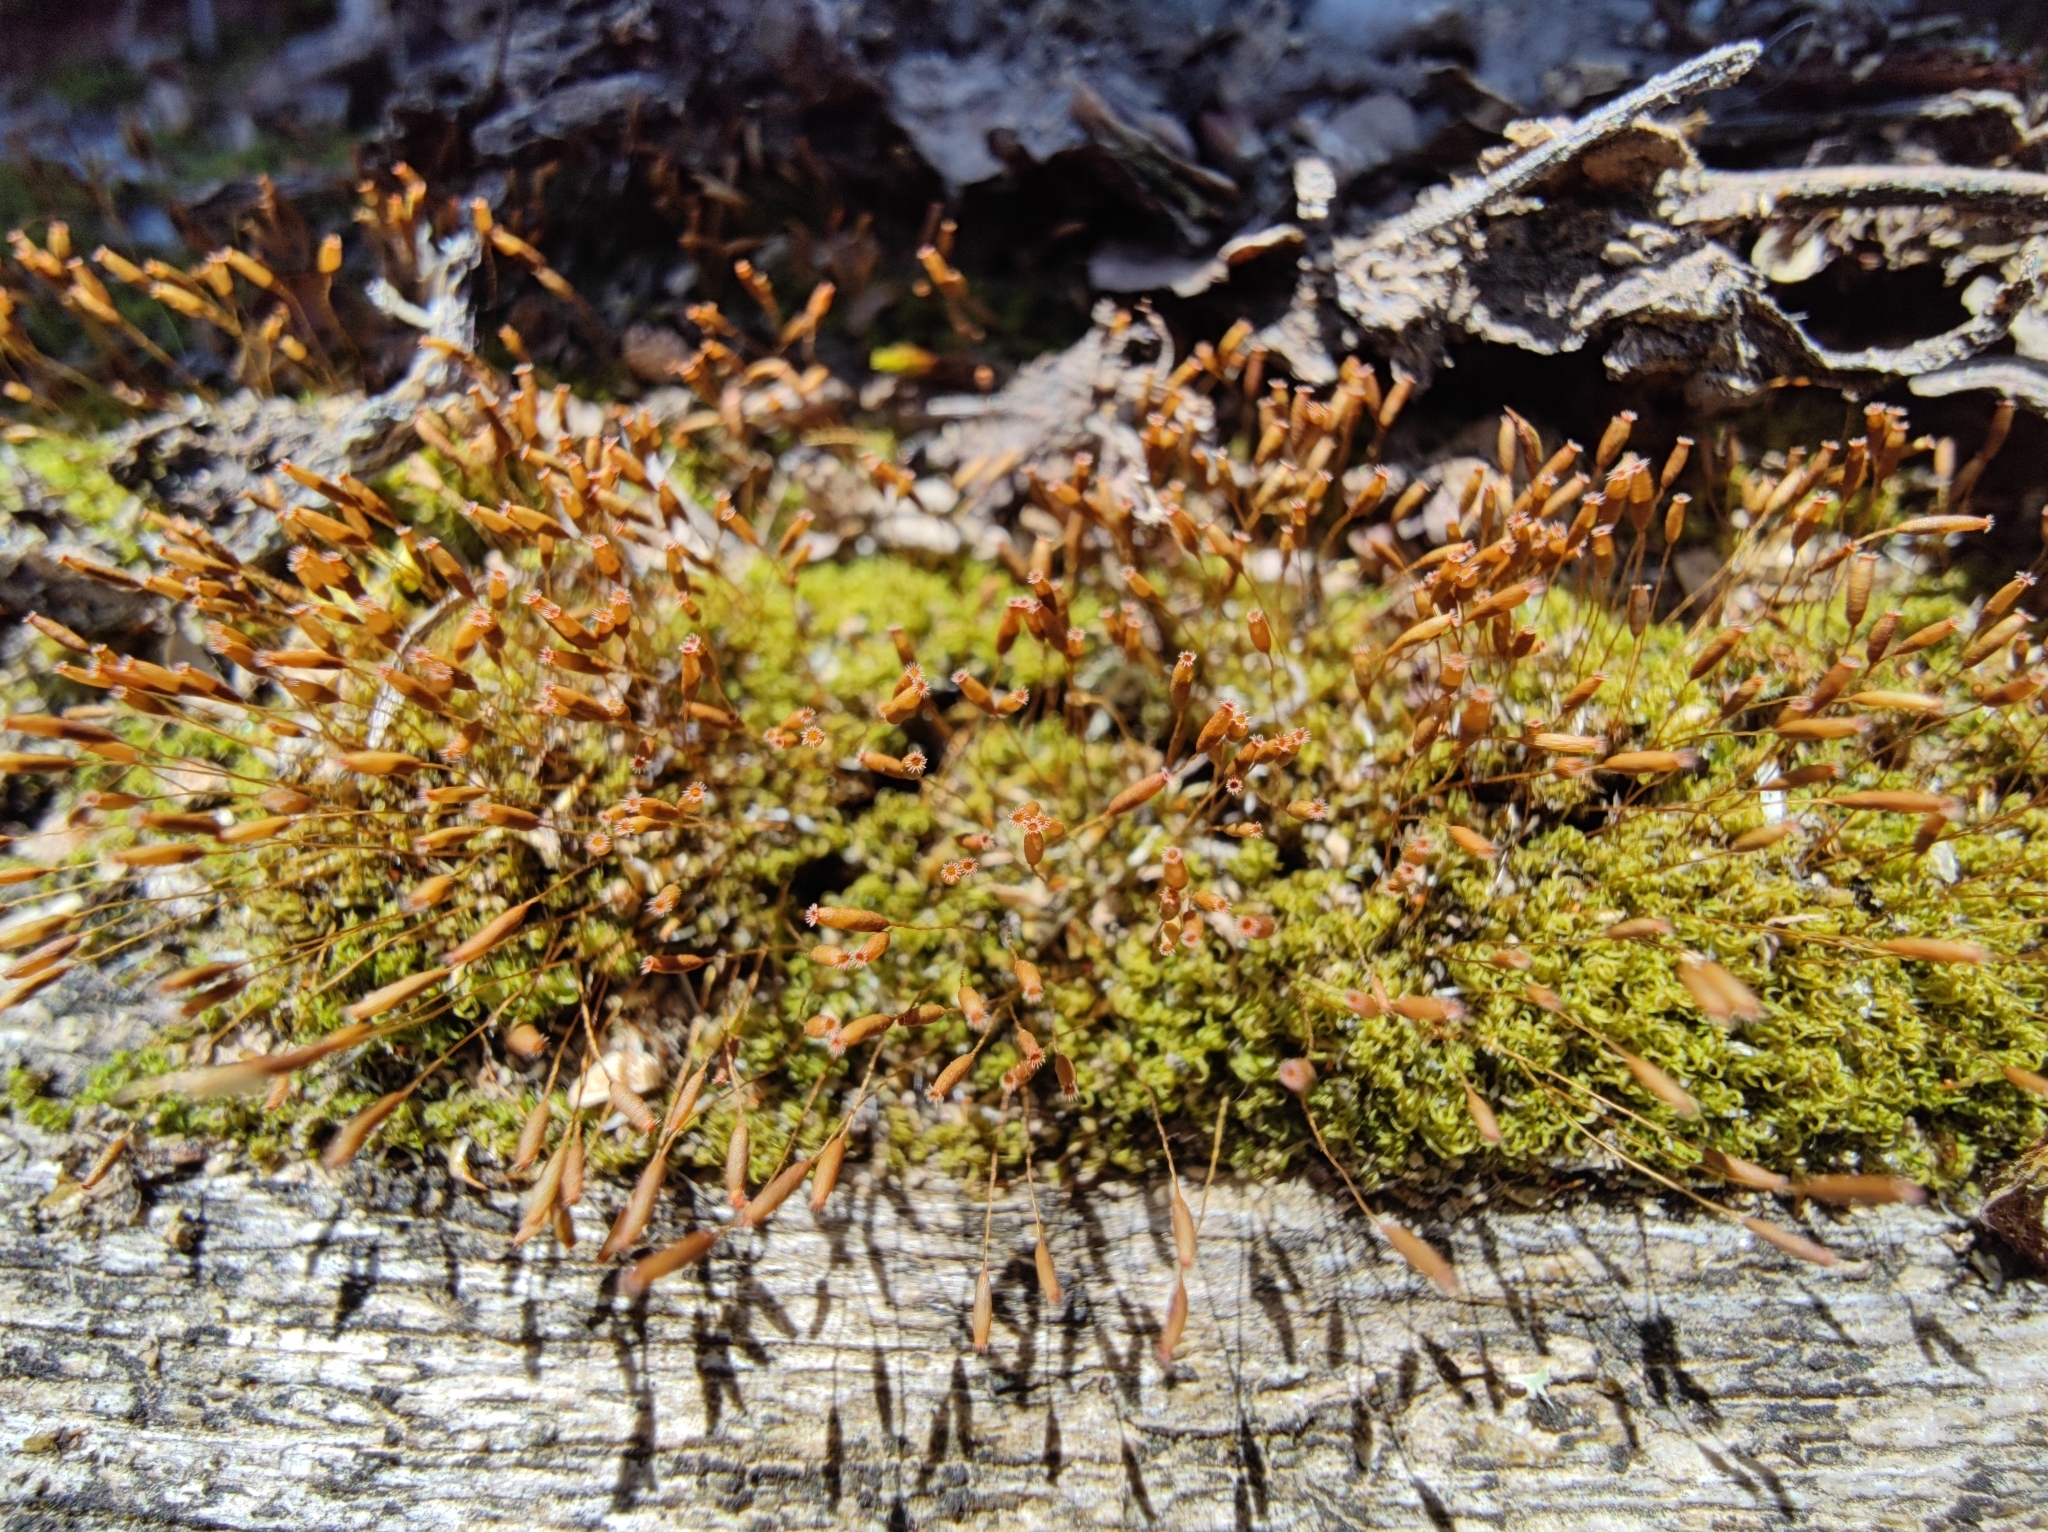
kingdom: Plantae
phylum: Bryophyta
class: Bryopsida
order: Dicranales
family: Rhabdoweisiaceae
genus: Dicranoweisia
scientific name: Dicranoweisia cirrata
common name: Common pincushion
